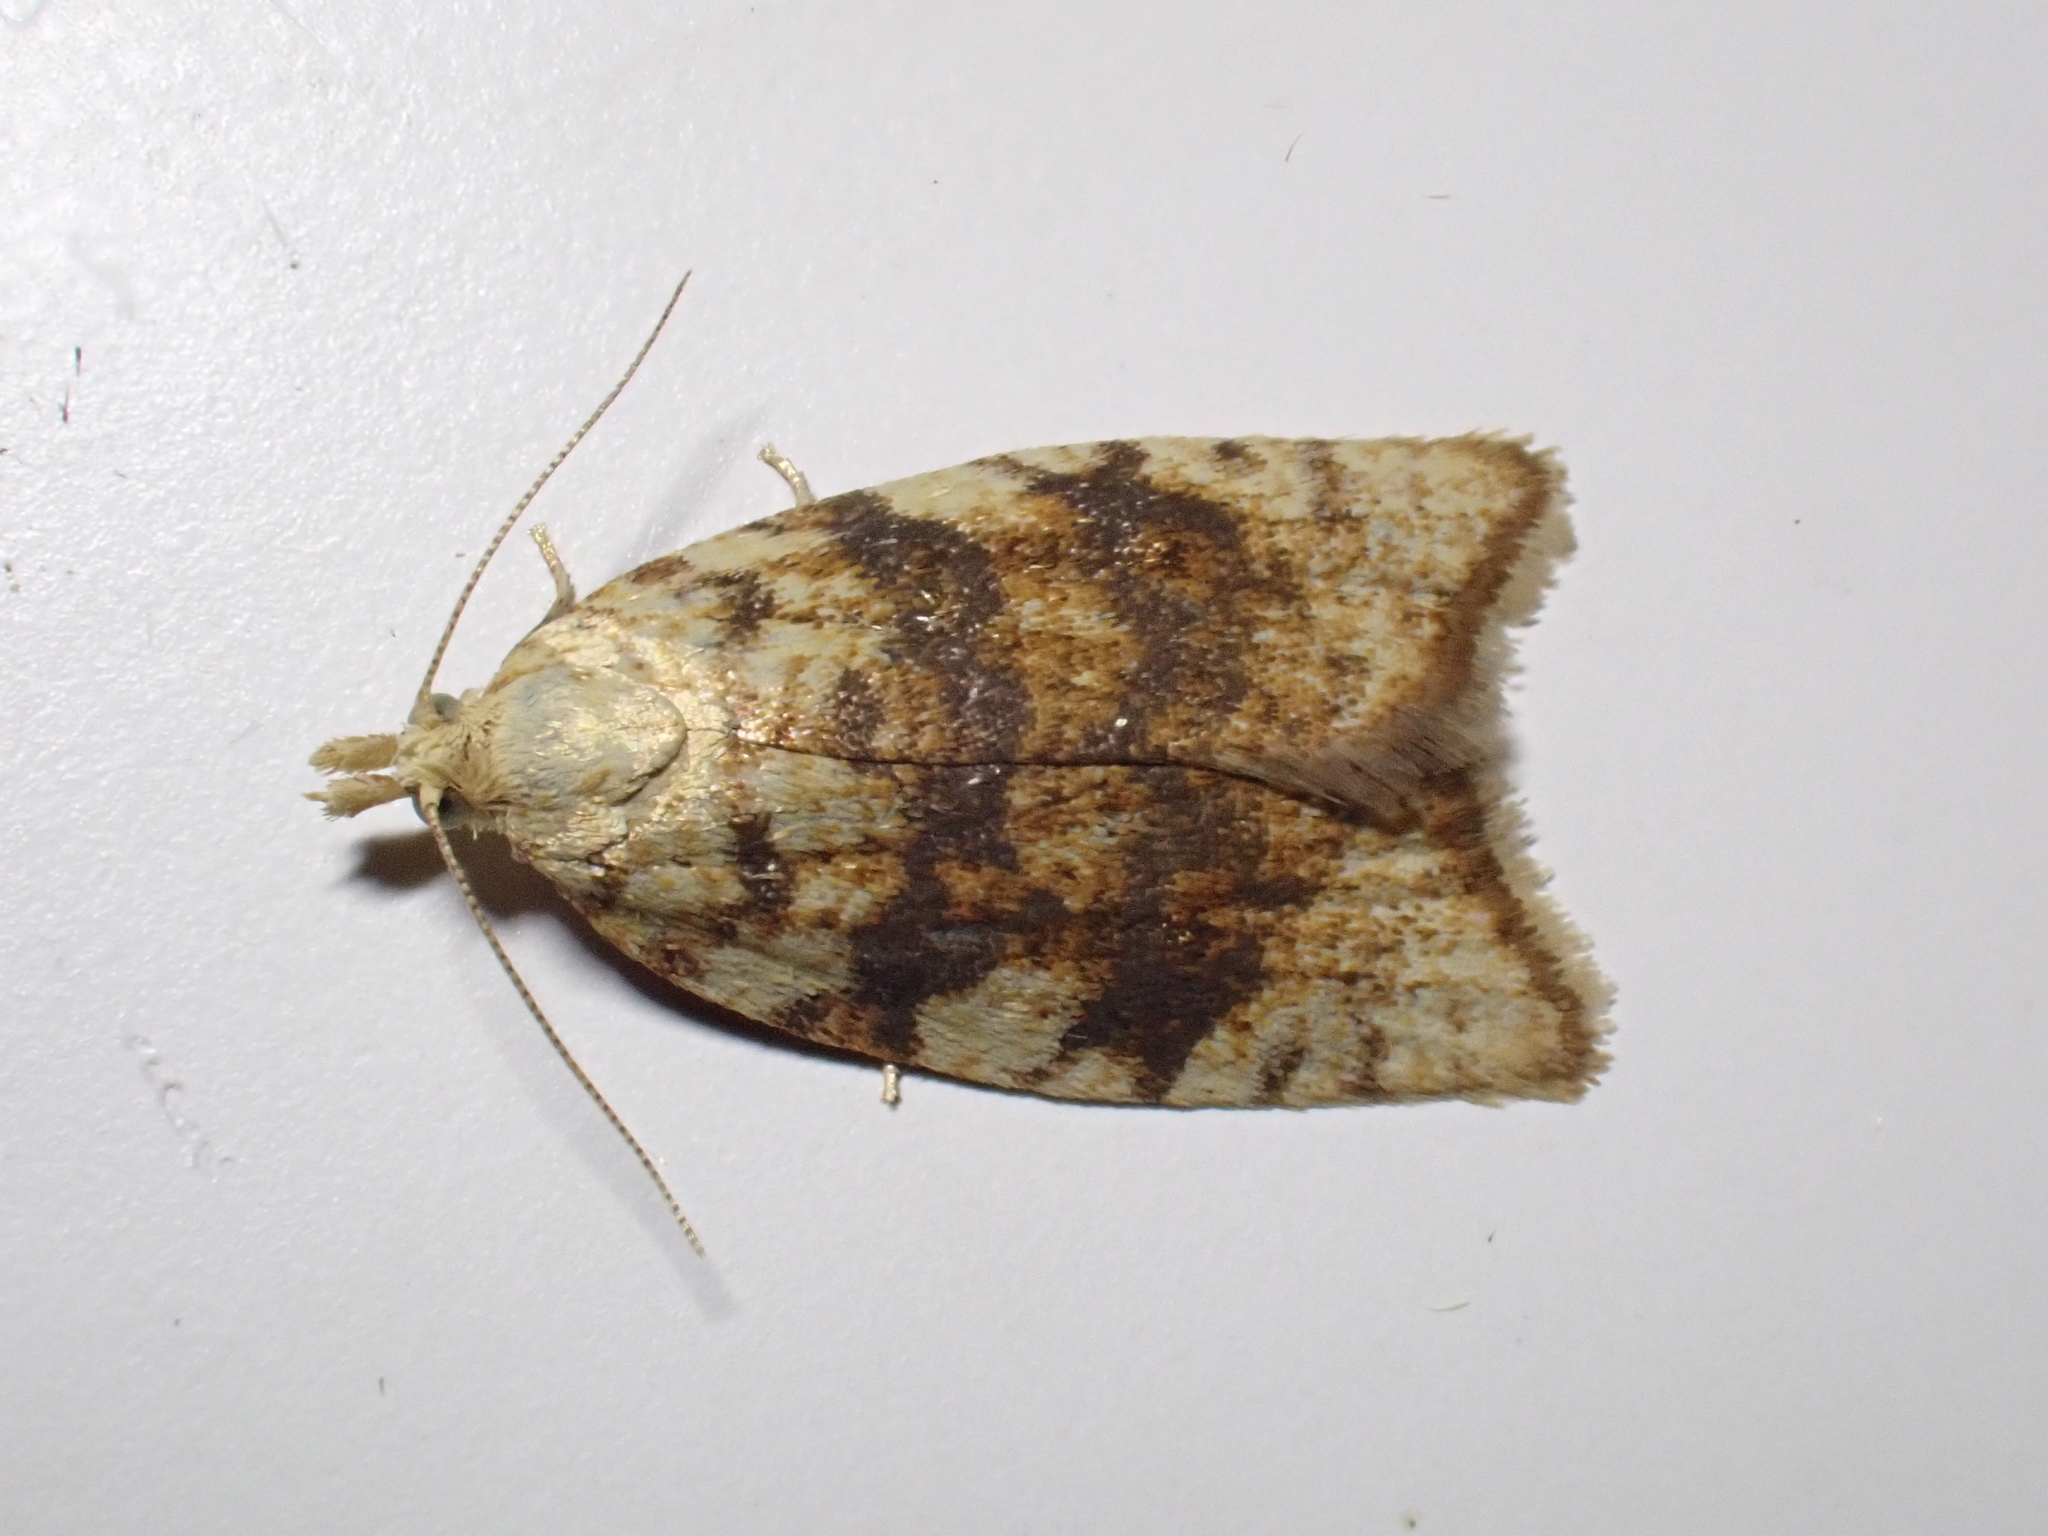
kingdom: Animalia
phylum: Arthropoda
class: Insecta
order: Lepidoptera
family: Tortricidae
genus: Aleimma
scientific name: Aleimma loeflingiana
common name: Yellow oak button
